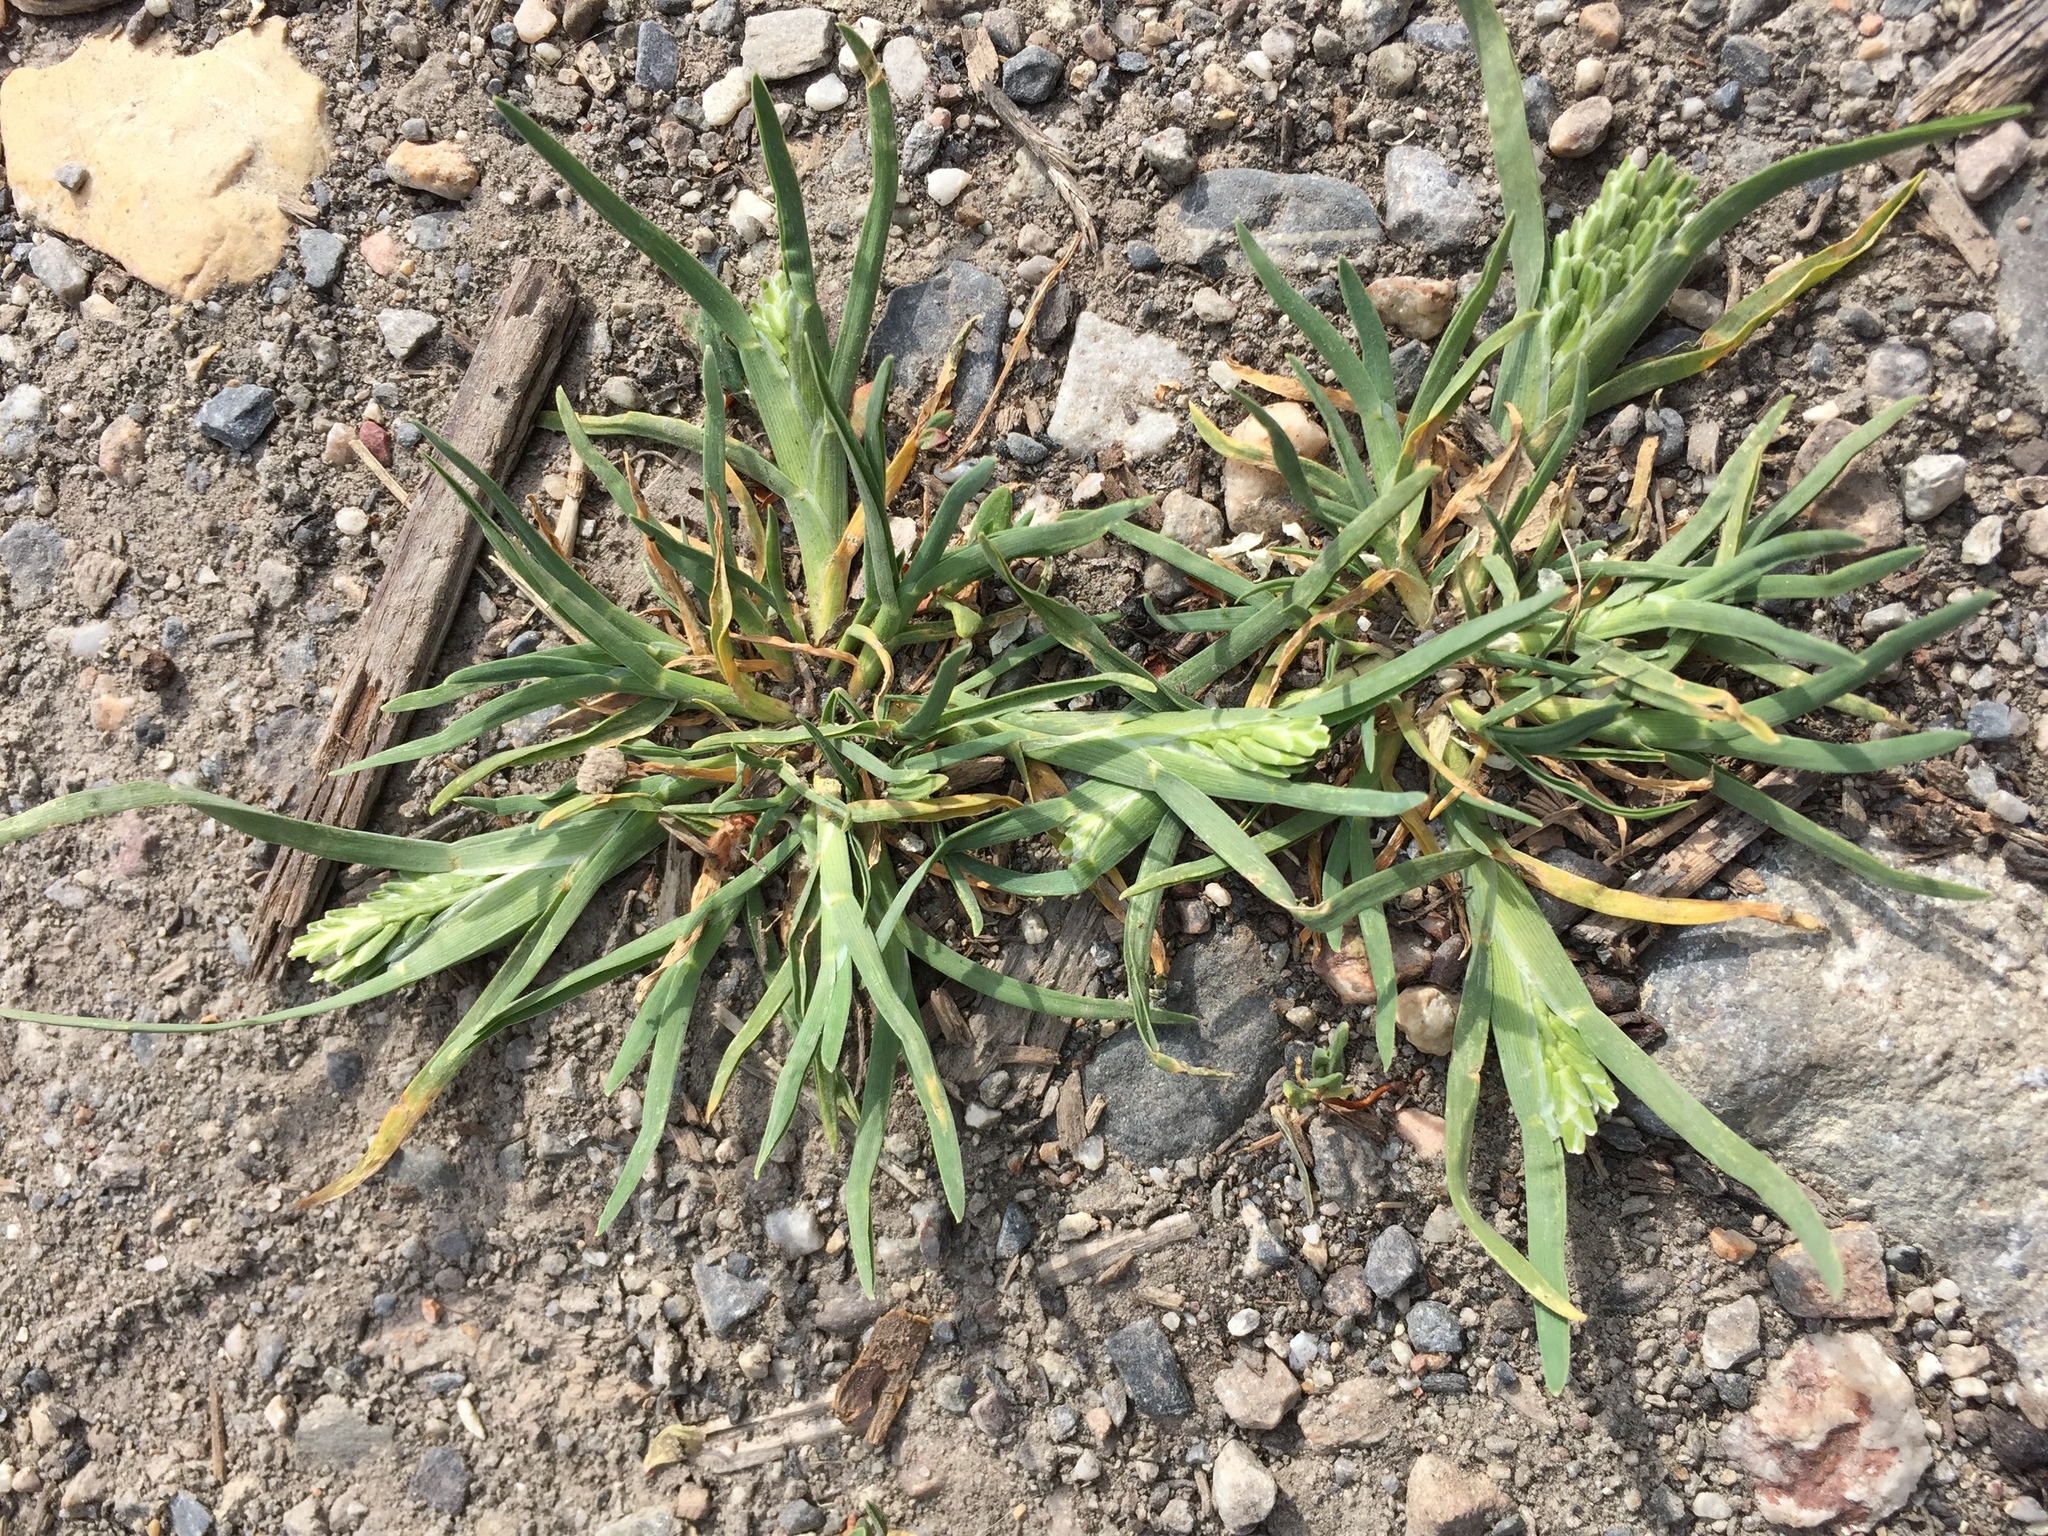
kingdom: Plantae
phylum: Tracheophyta
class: Liliopsida
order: Poales
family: Poaceae
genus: Sclerochloa
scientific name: Sclerochloa dura
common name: Common hardgrass
